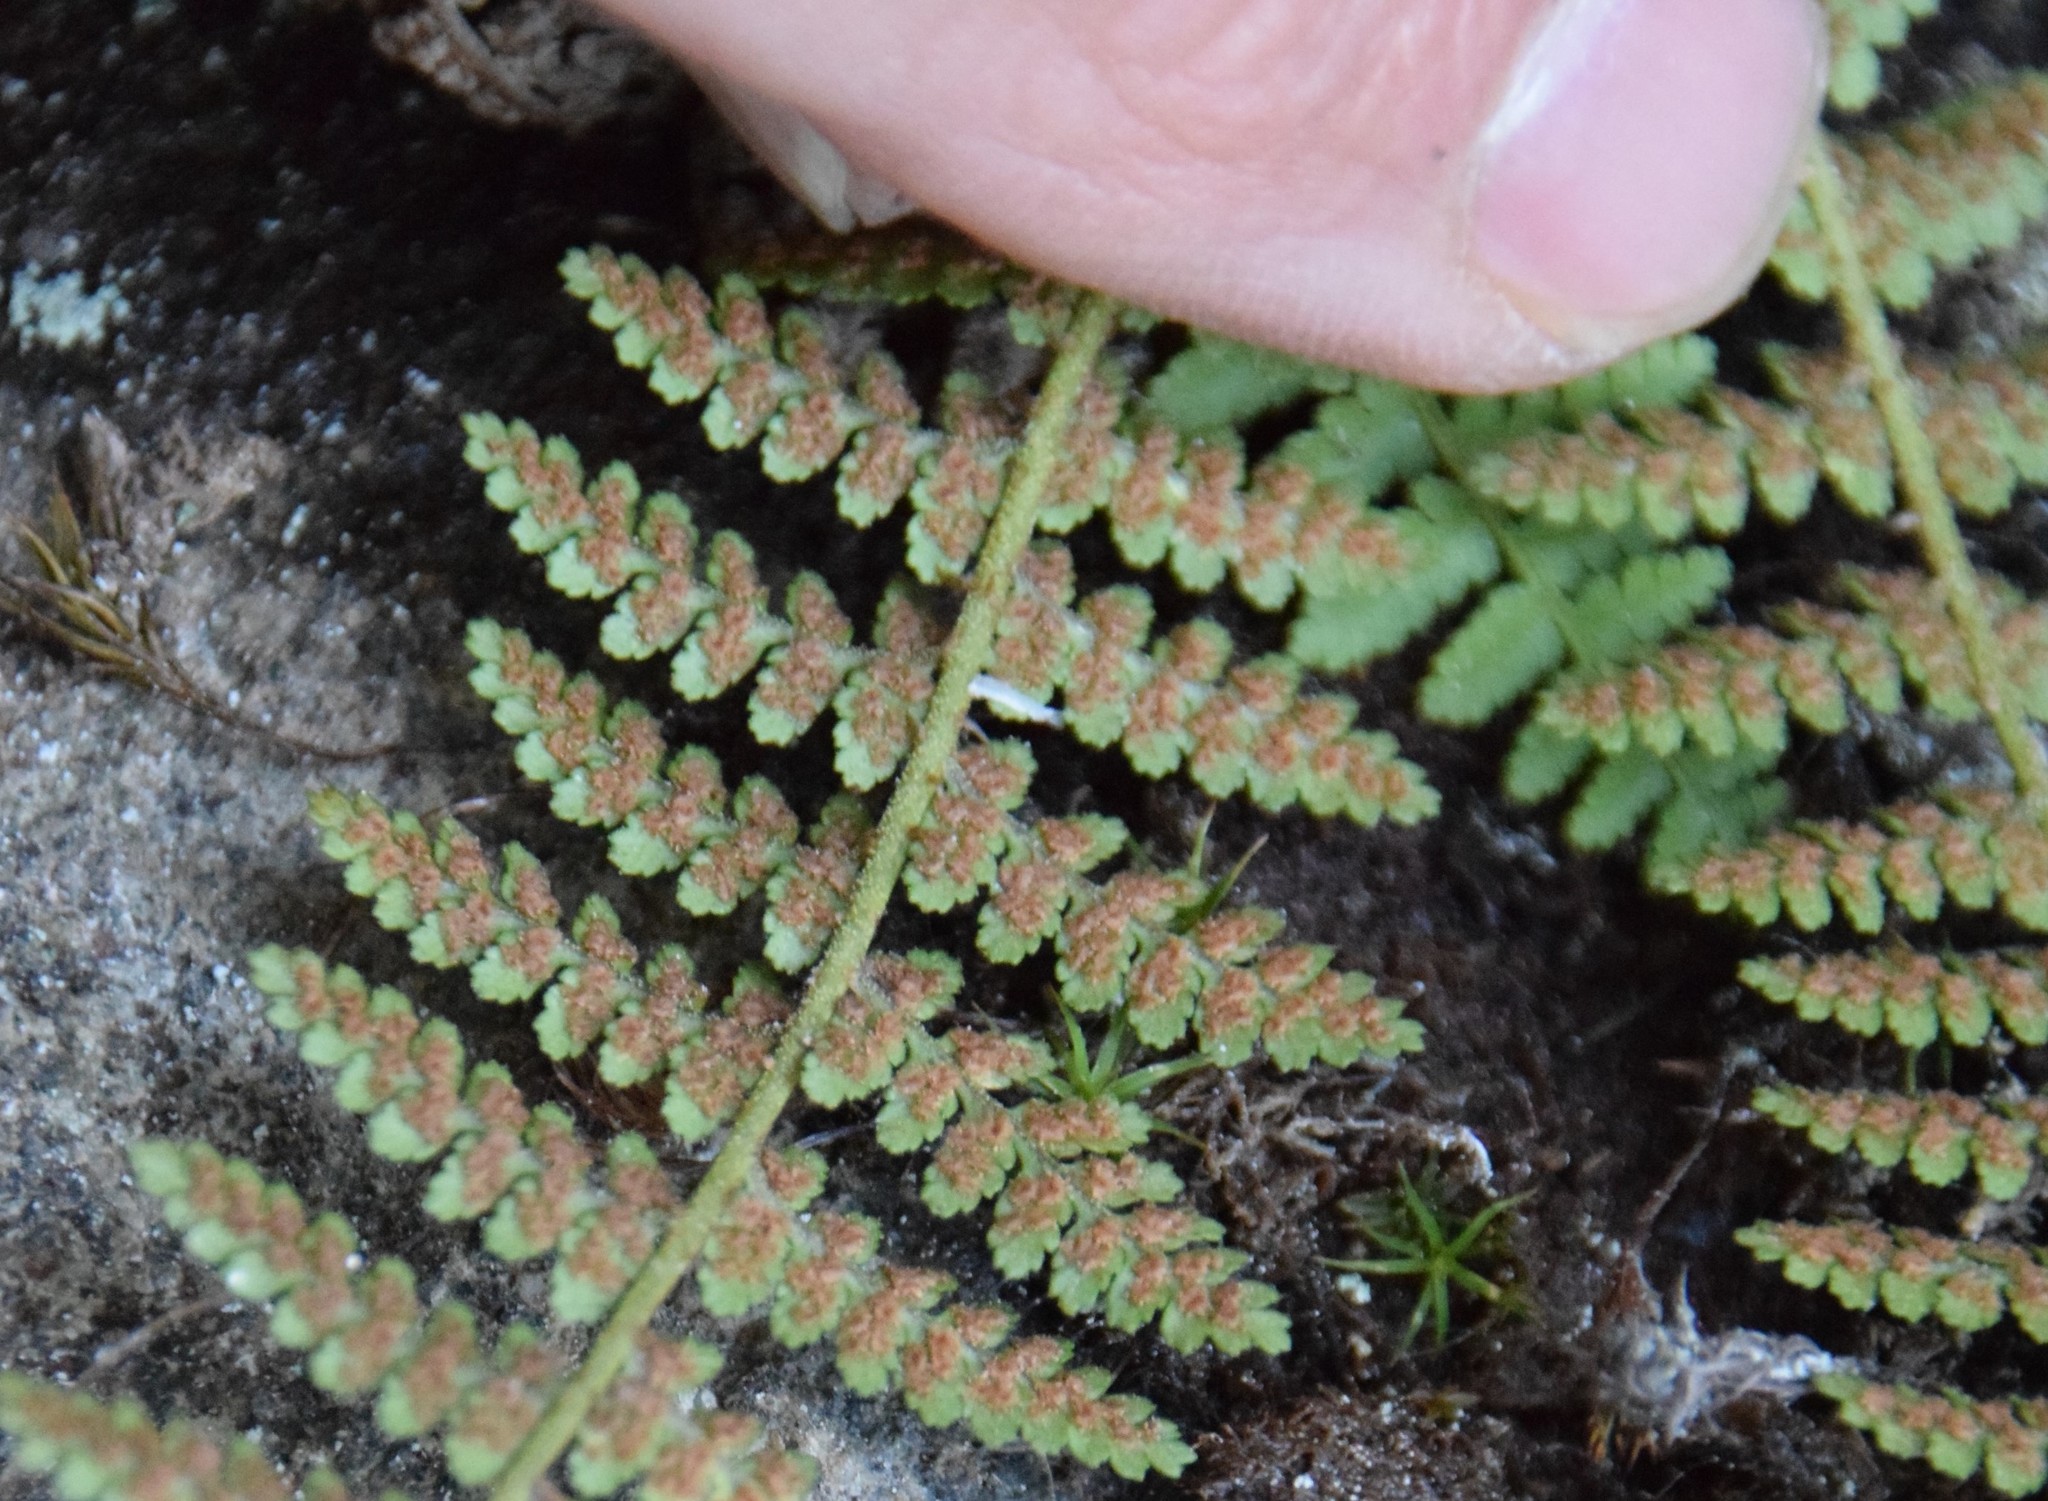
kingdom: Plantae
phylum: Tracheophyta
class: Polypodiopsida
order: Polypodiales
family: Dryopteridaceae
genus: Dryopteris
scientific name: Dryopteris fragrans
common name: Fragrant wood fern
